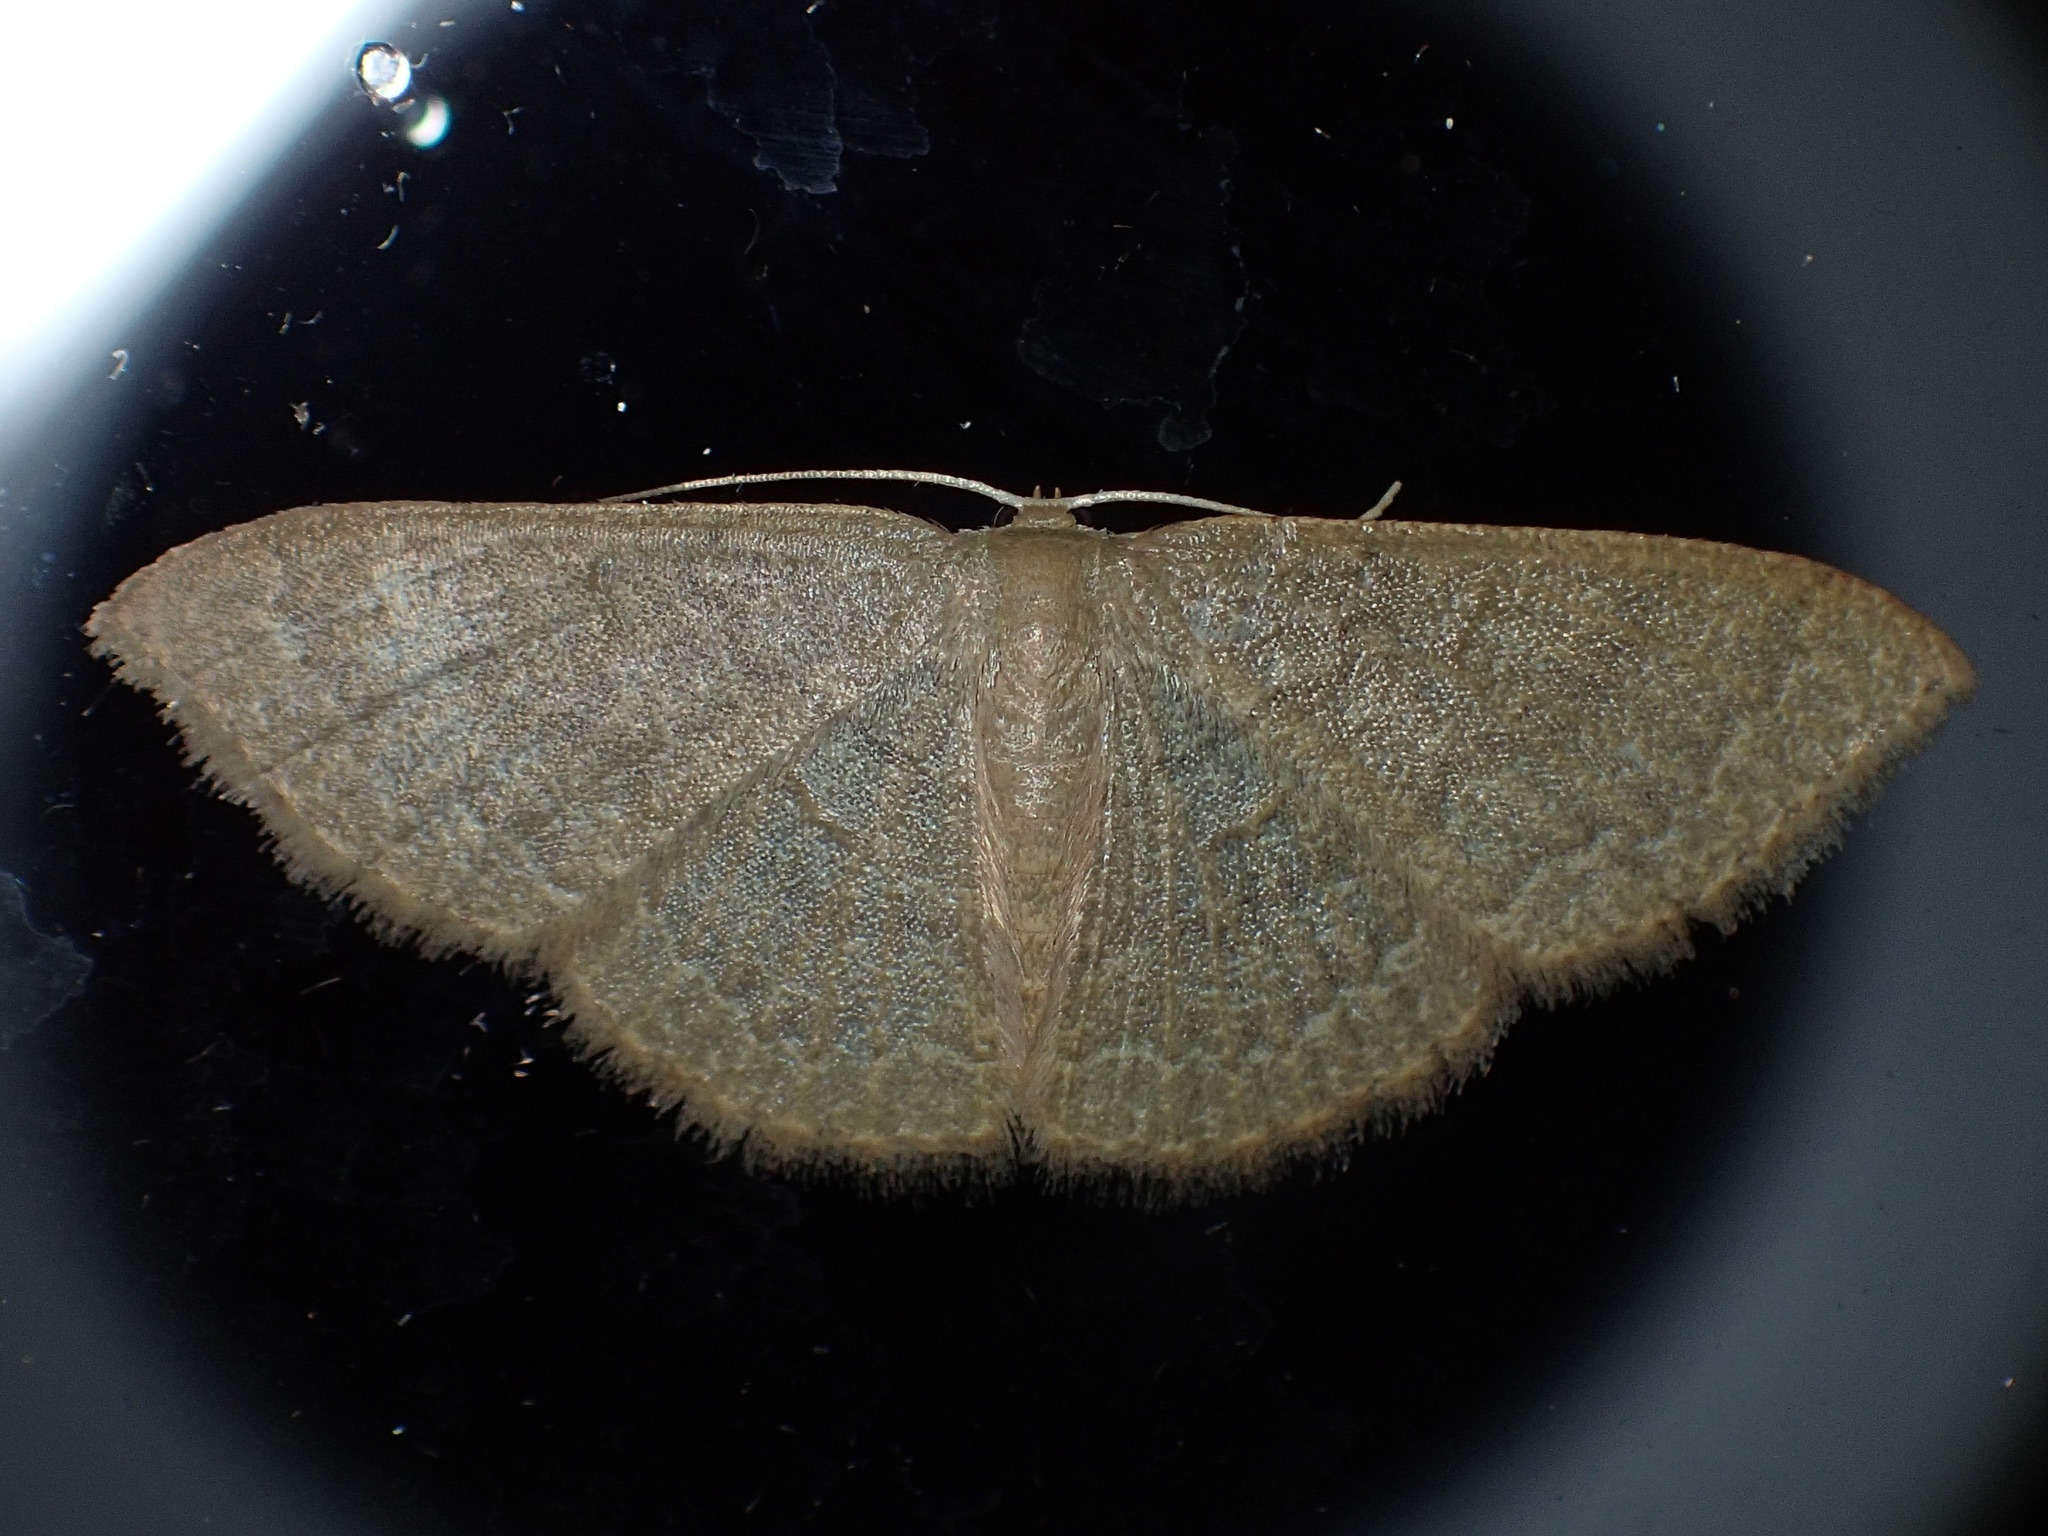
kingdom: Animalia
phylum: Arthropoda
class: Insecta
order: Lepidoptera
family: Geometridae
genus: Pleuroprucha
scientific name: Pleuroprucha insulsaria
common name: Common tan wave
